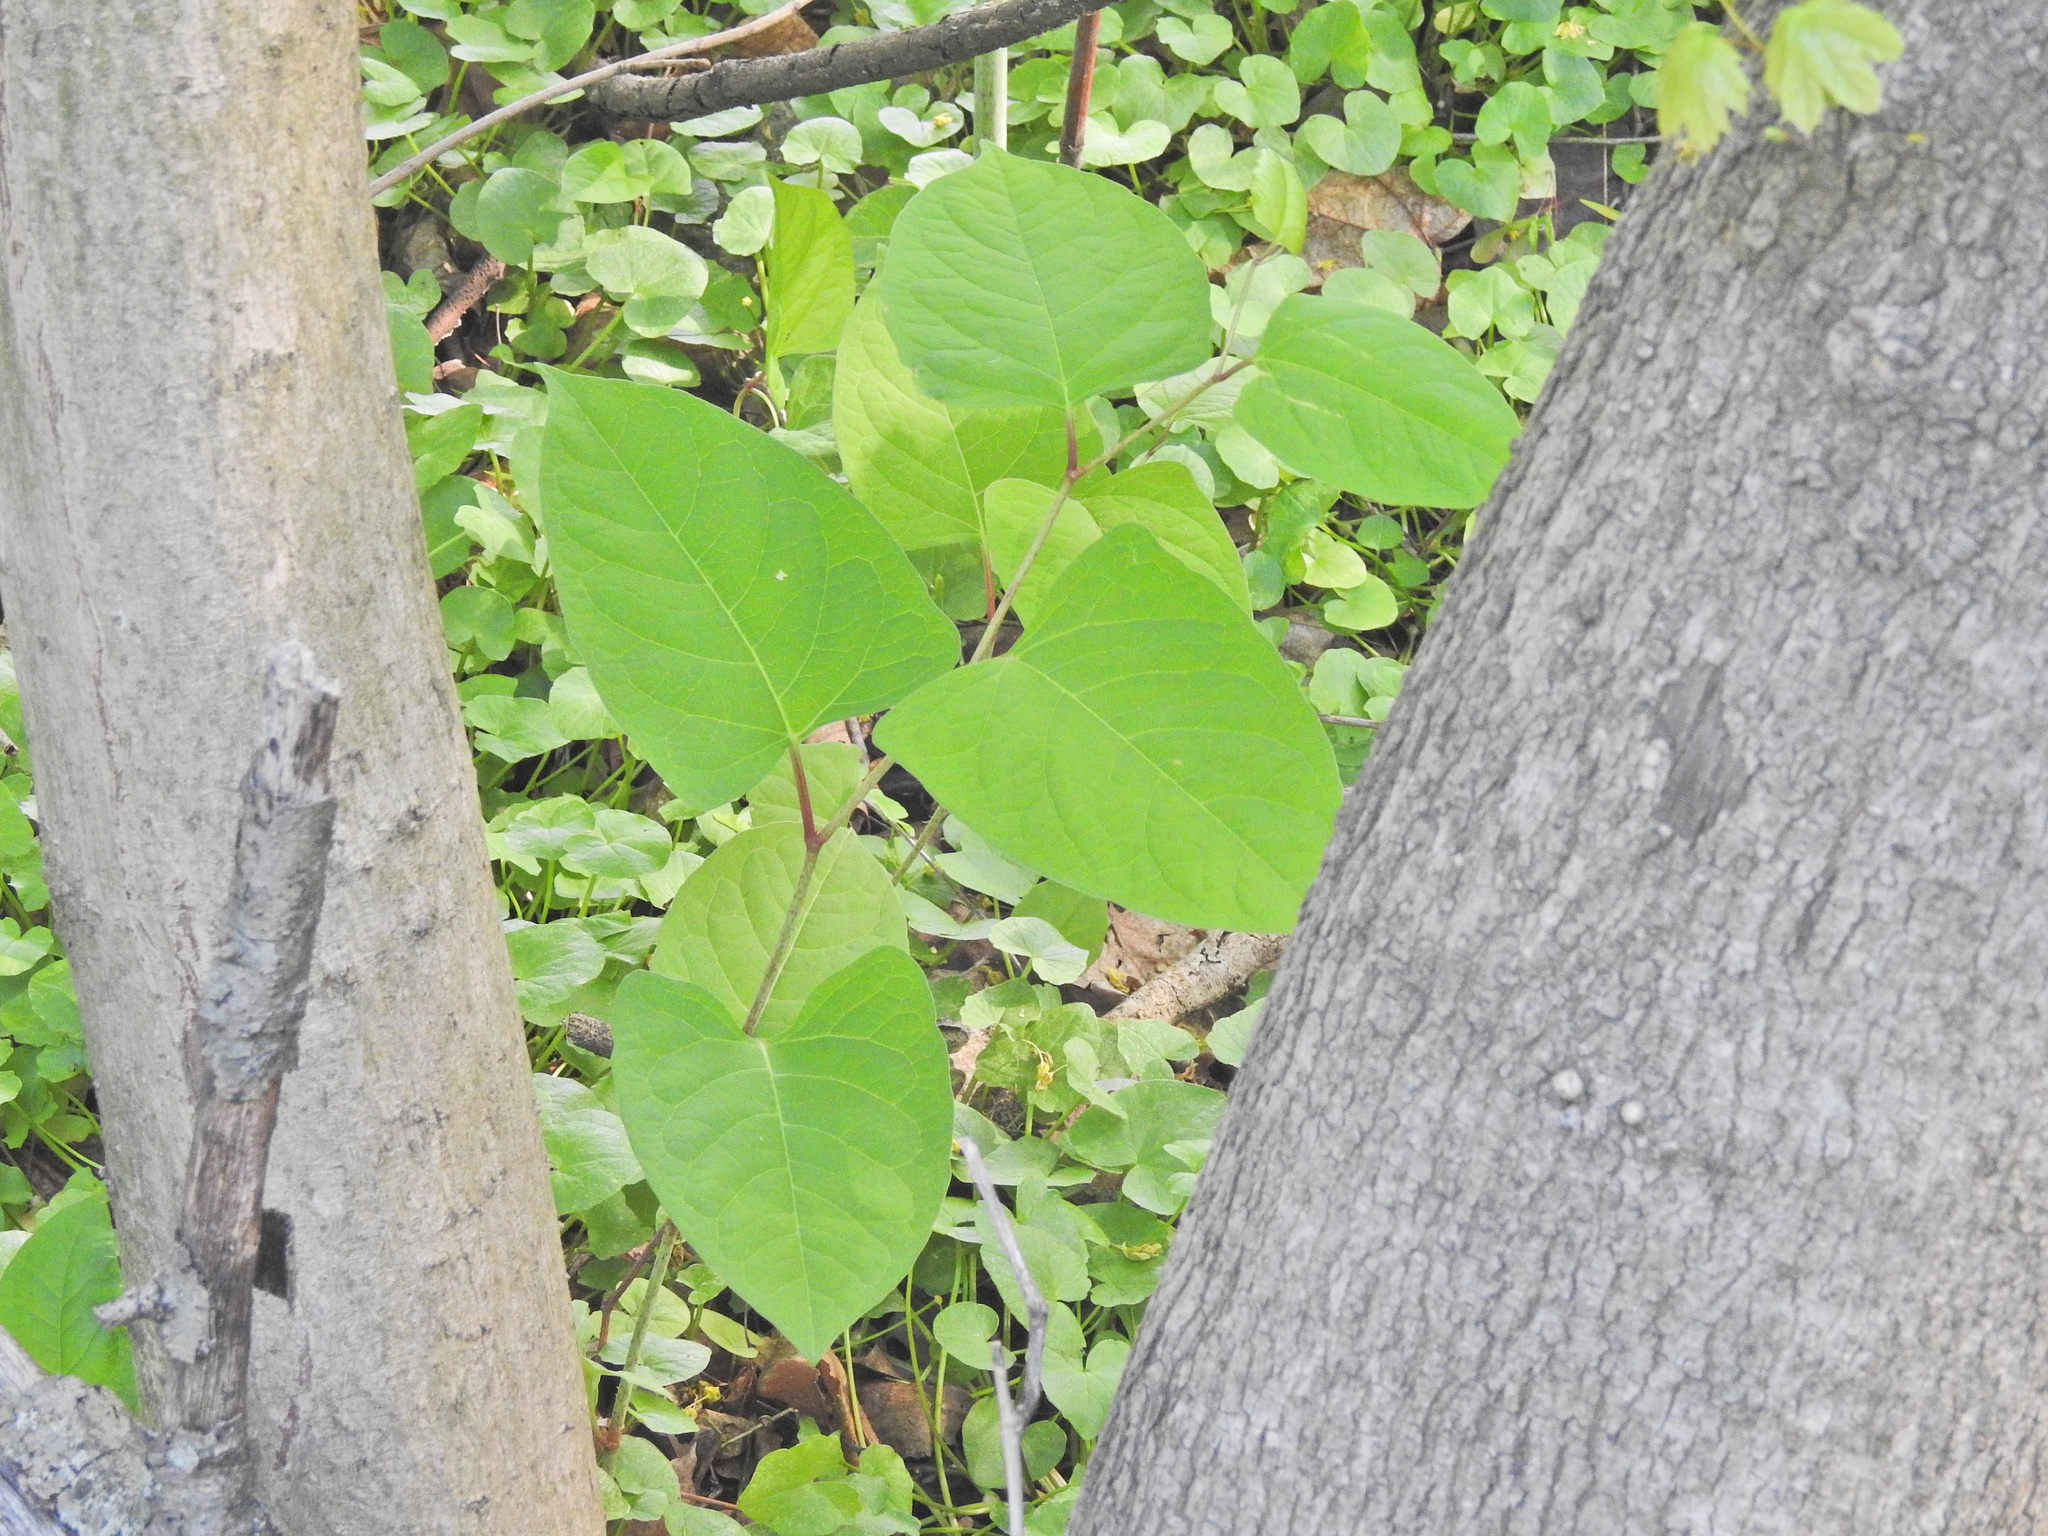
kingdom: Plantae
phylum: Tracheophyta
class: Magnoliopsida
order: Caryophyllales
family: Polygonaceae
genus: Reynoutria
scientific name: Reynoutria japonica
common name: Japanese knotweed
